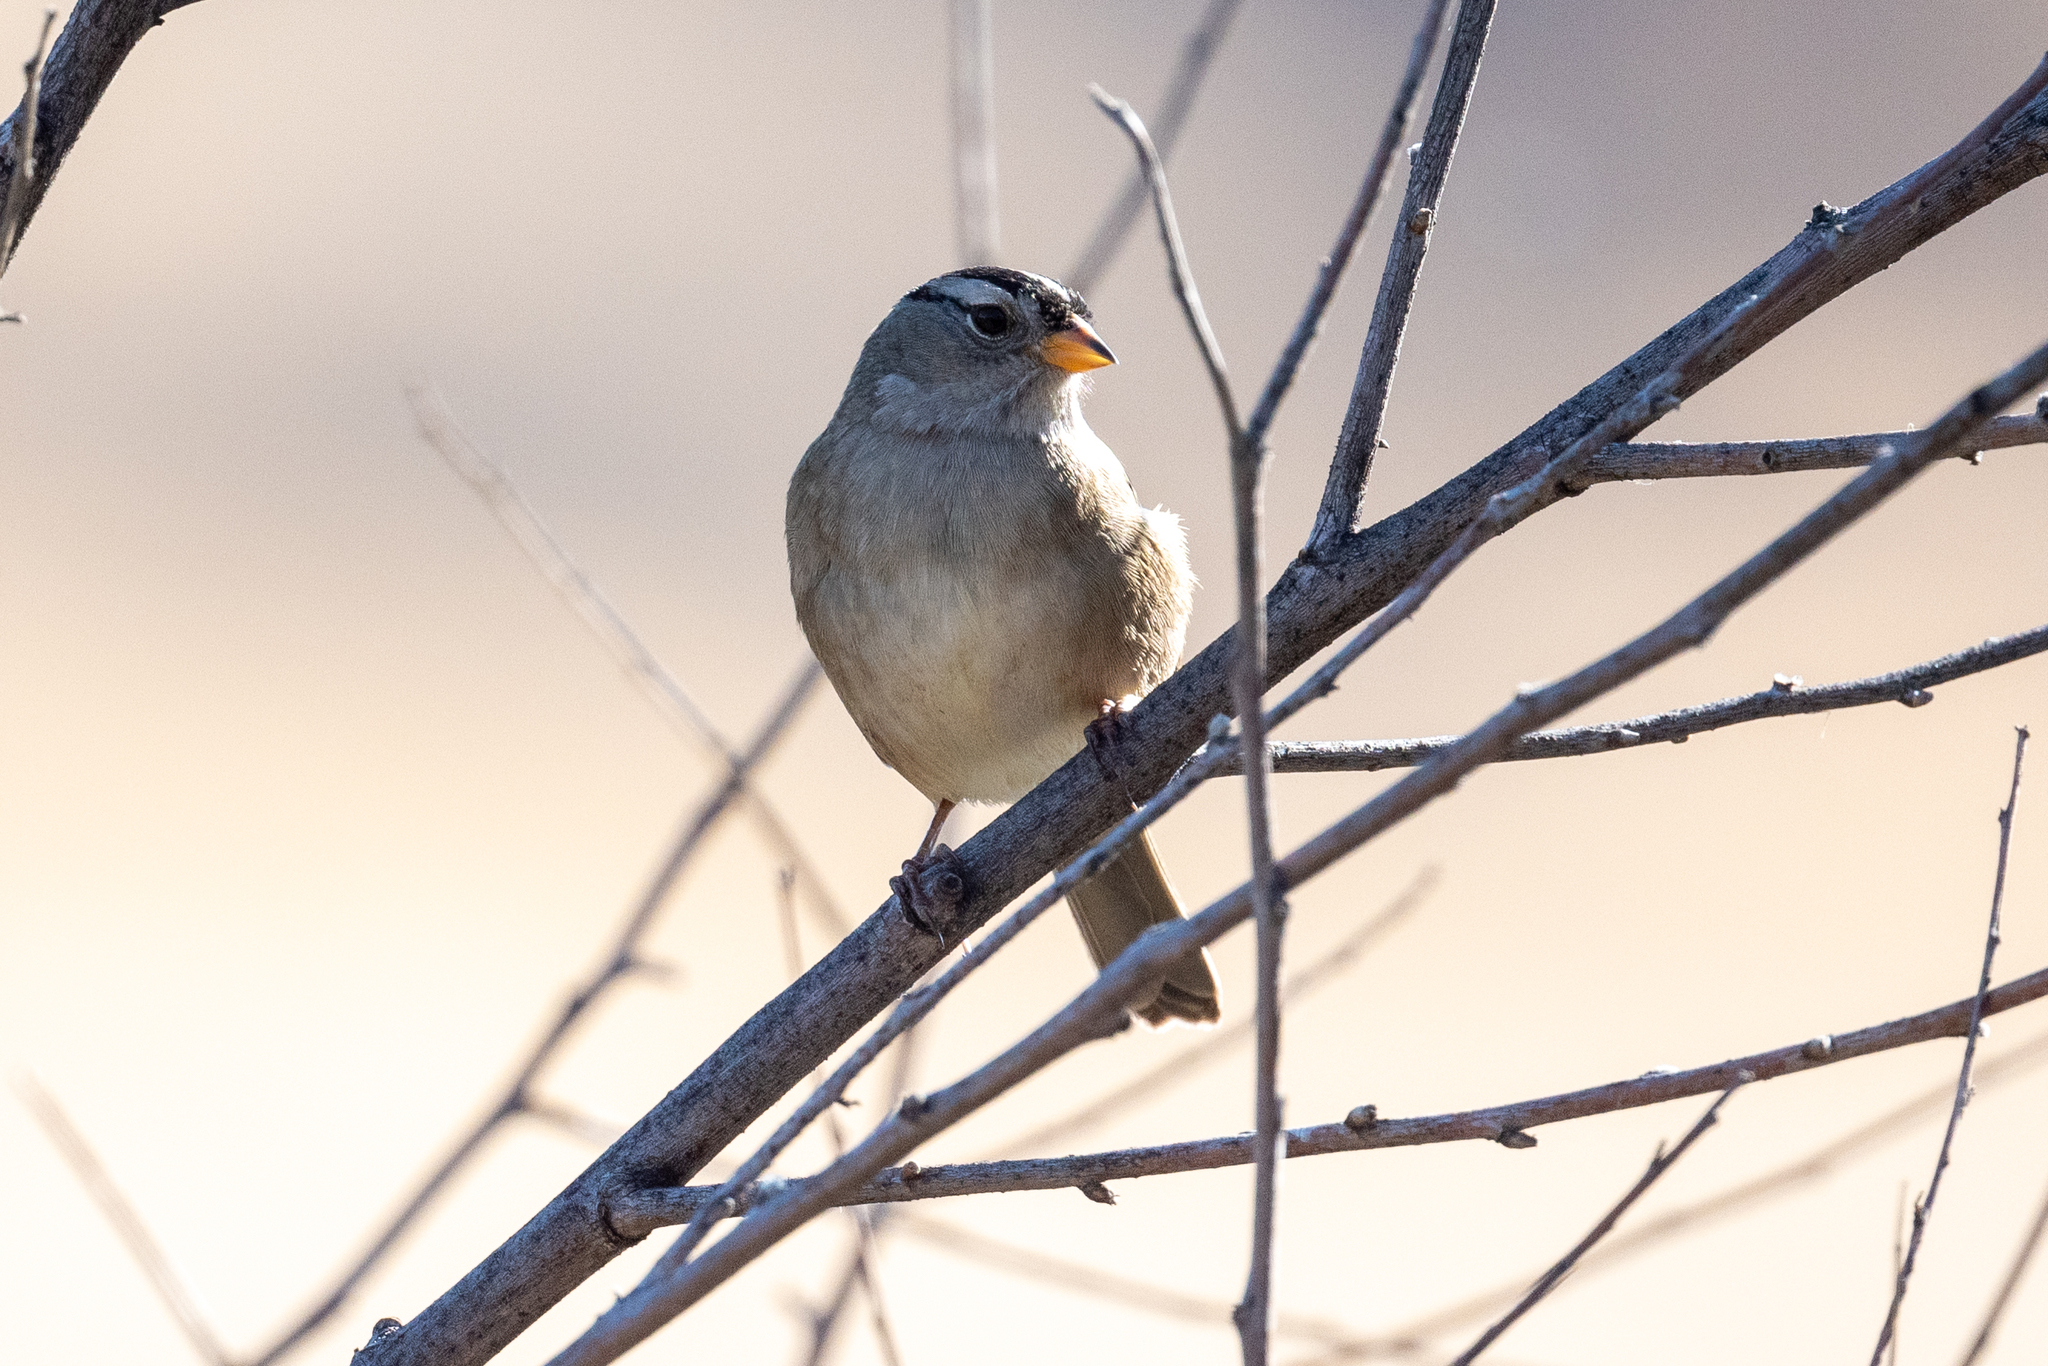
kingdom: Animalia
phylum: Chordata
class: Aves
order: Passeriformes
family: Passerellidae
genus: Zonotrichia
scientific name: Zonotrichia leucophrys
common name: White-crowned sparrow
